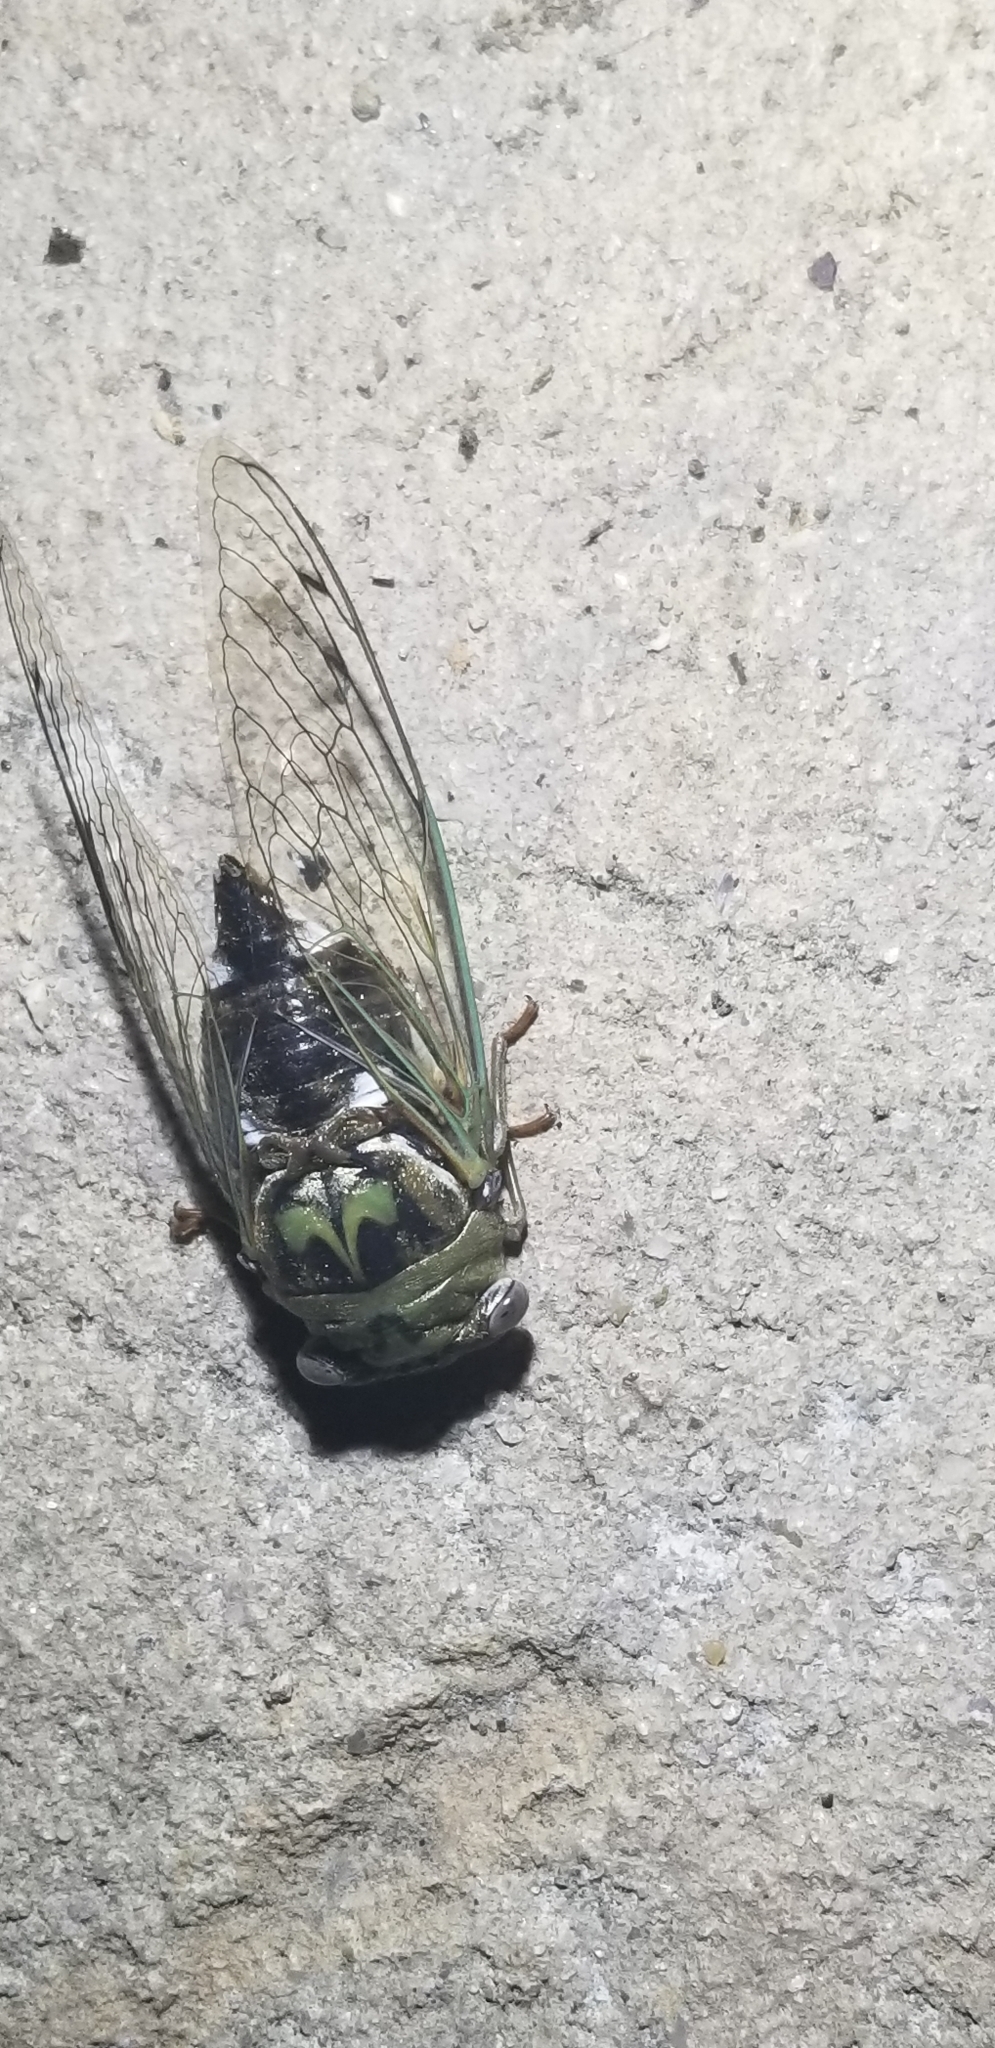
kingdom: Animalia
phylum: Arthropoda
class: Insecta
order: Hemiptera
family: Cicadidae
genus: Megatibicen
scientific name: Megatibicen resh
